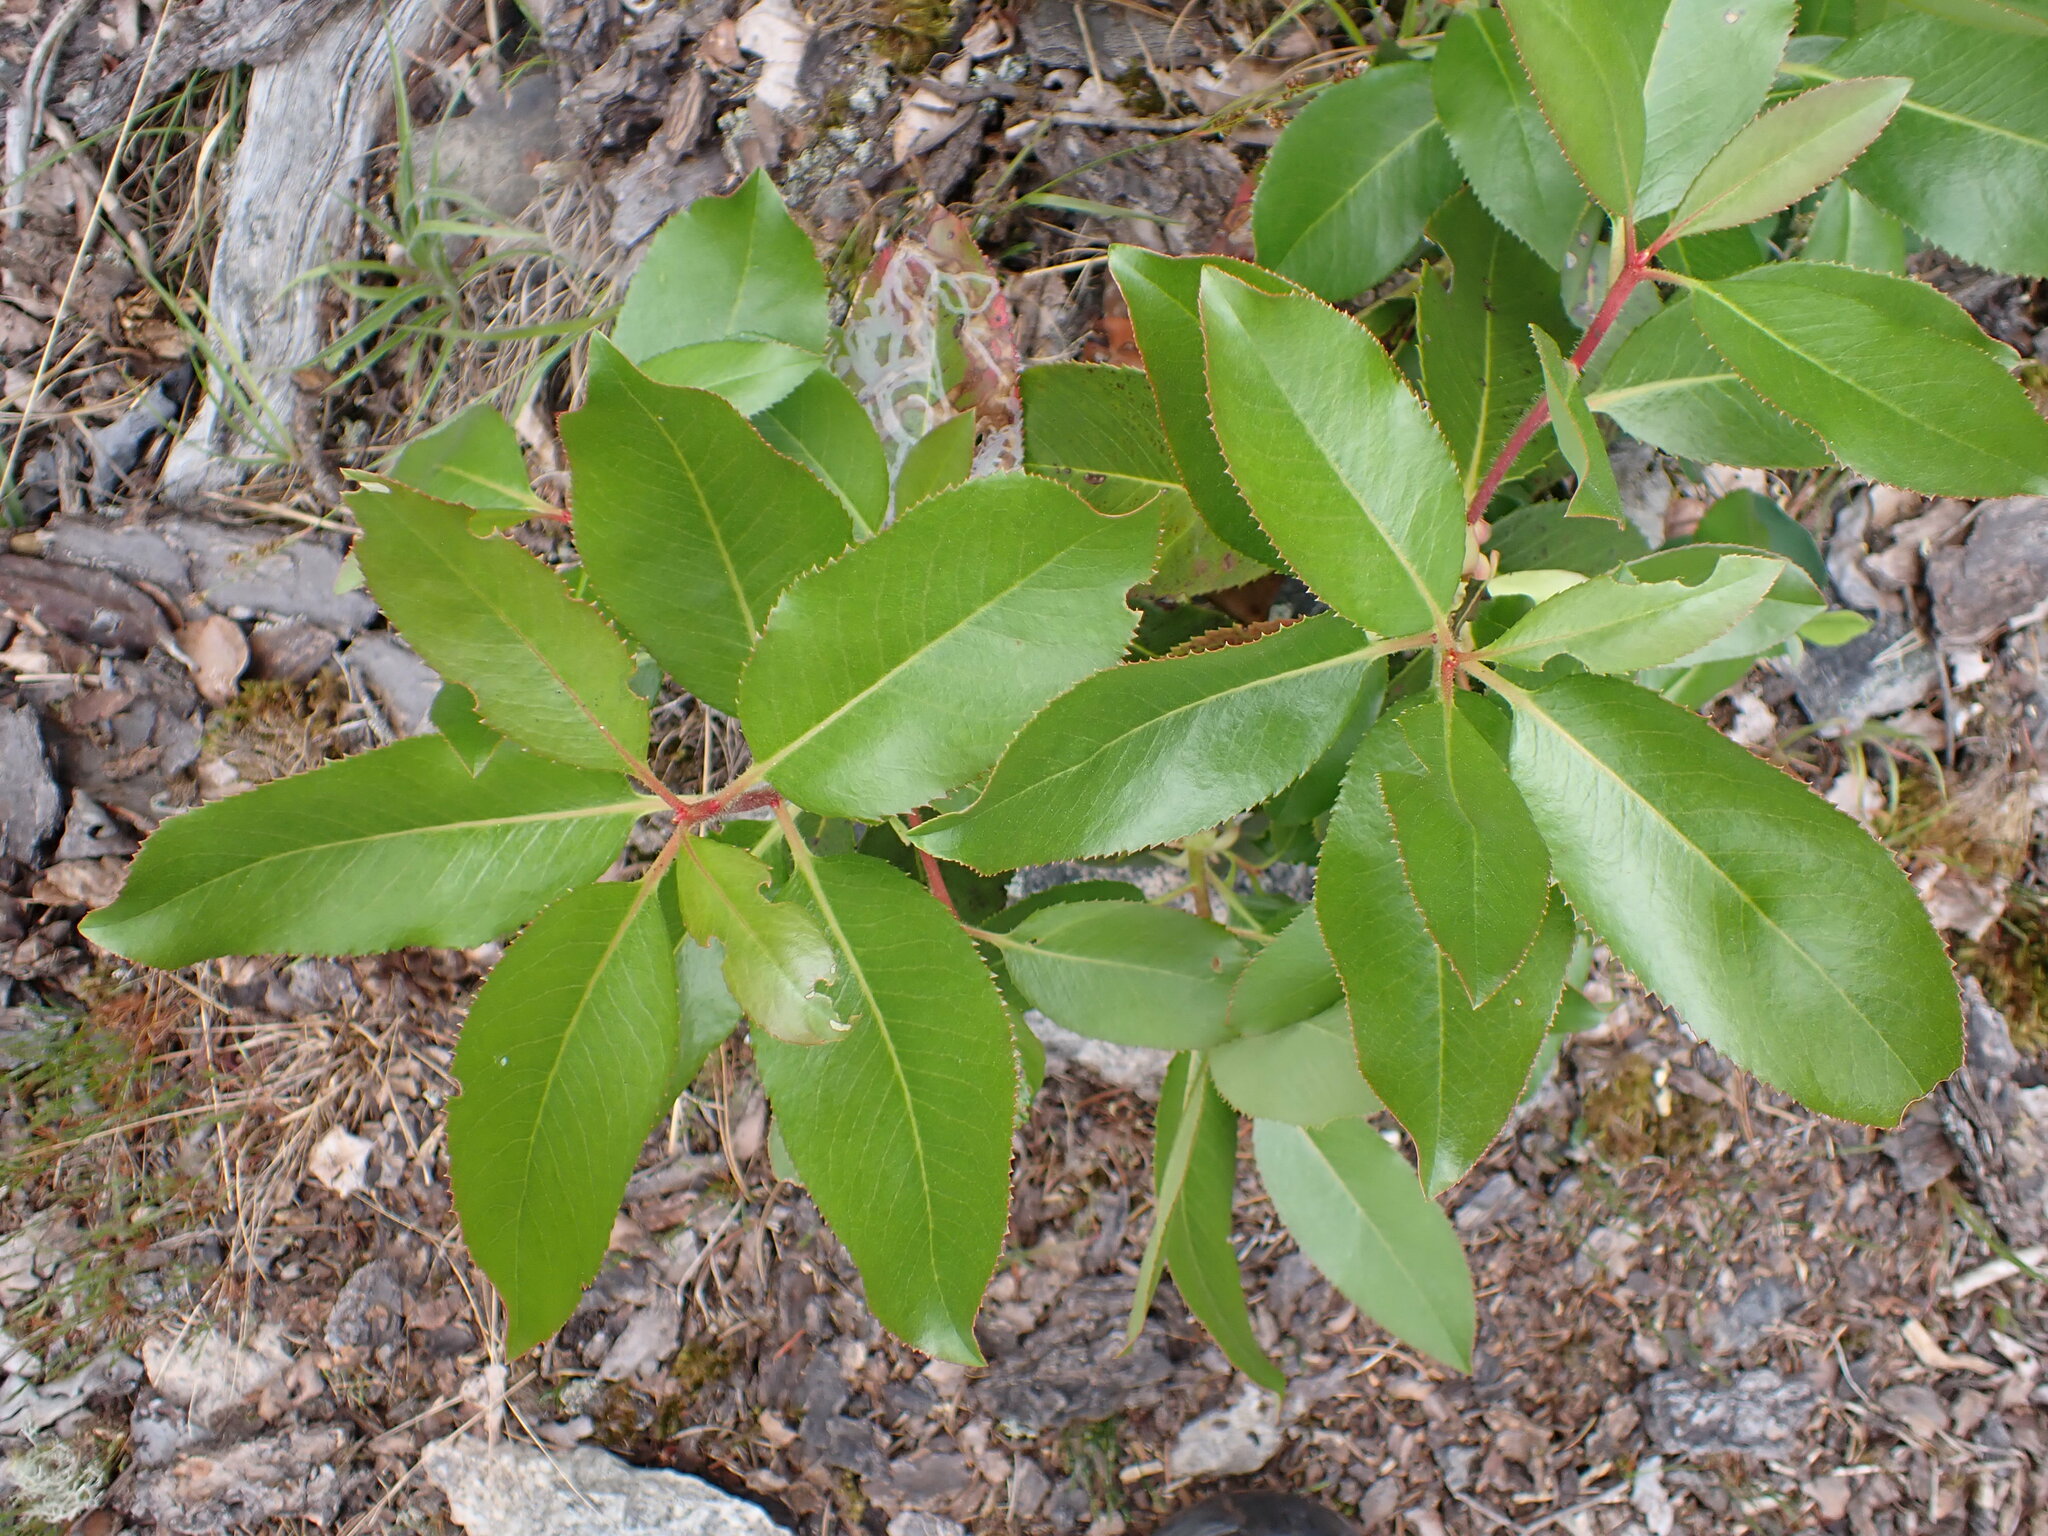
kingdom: Plantae
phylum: Tracheophyta
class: Magnoliopsida
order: Ericales
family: Ericaceae
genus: Arbutus
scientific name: Arbutus menziesii
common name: Pacific madrone
